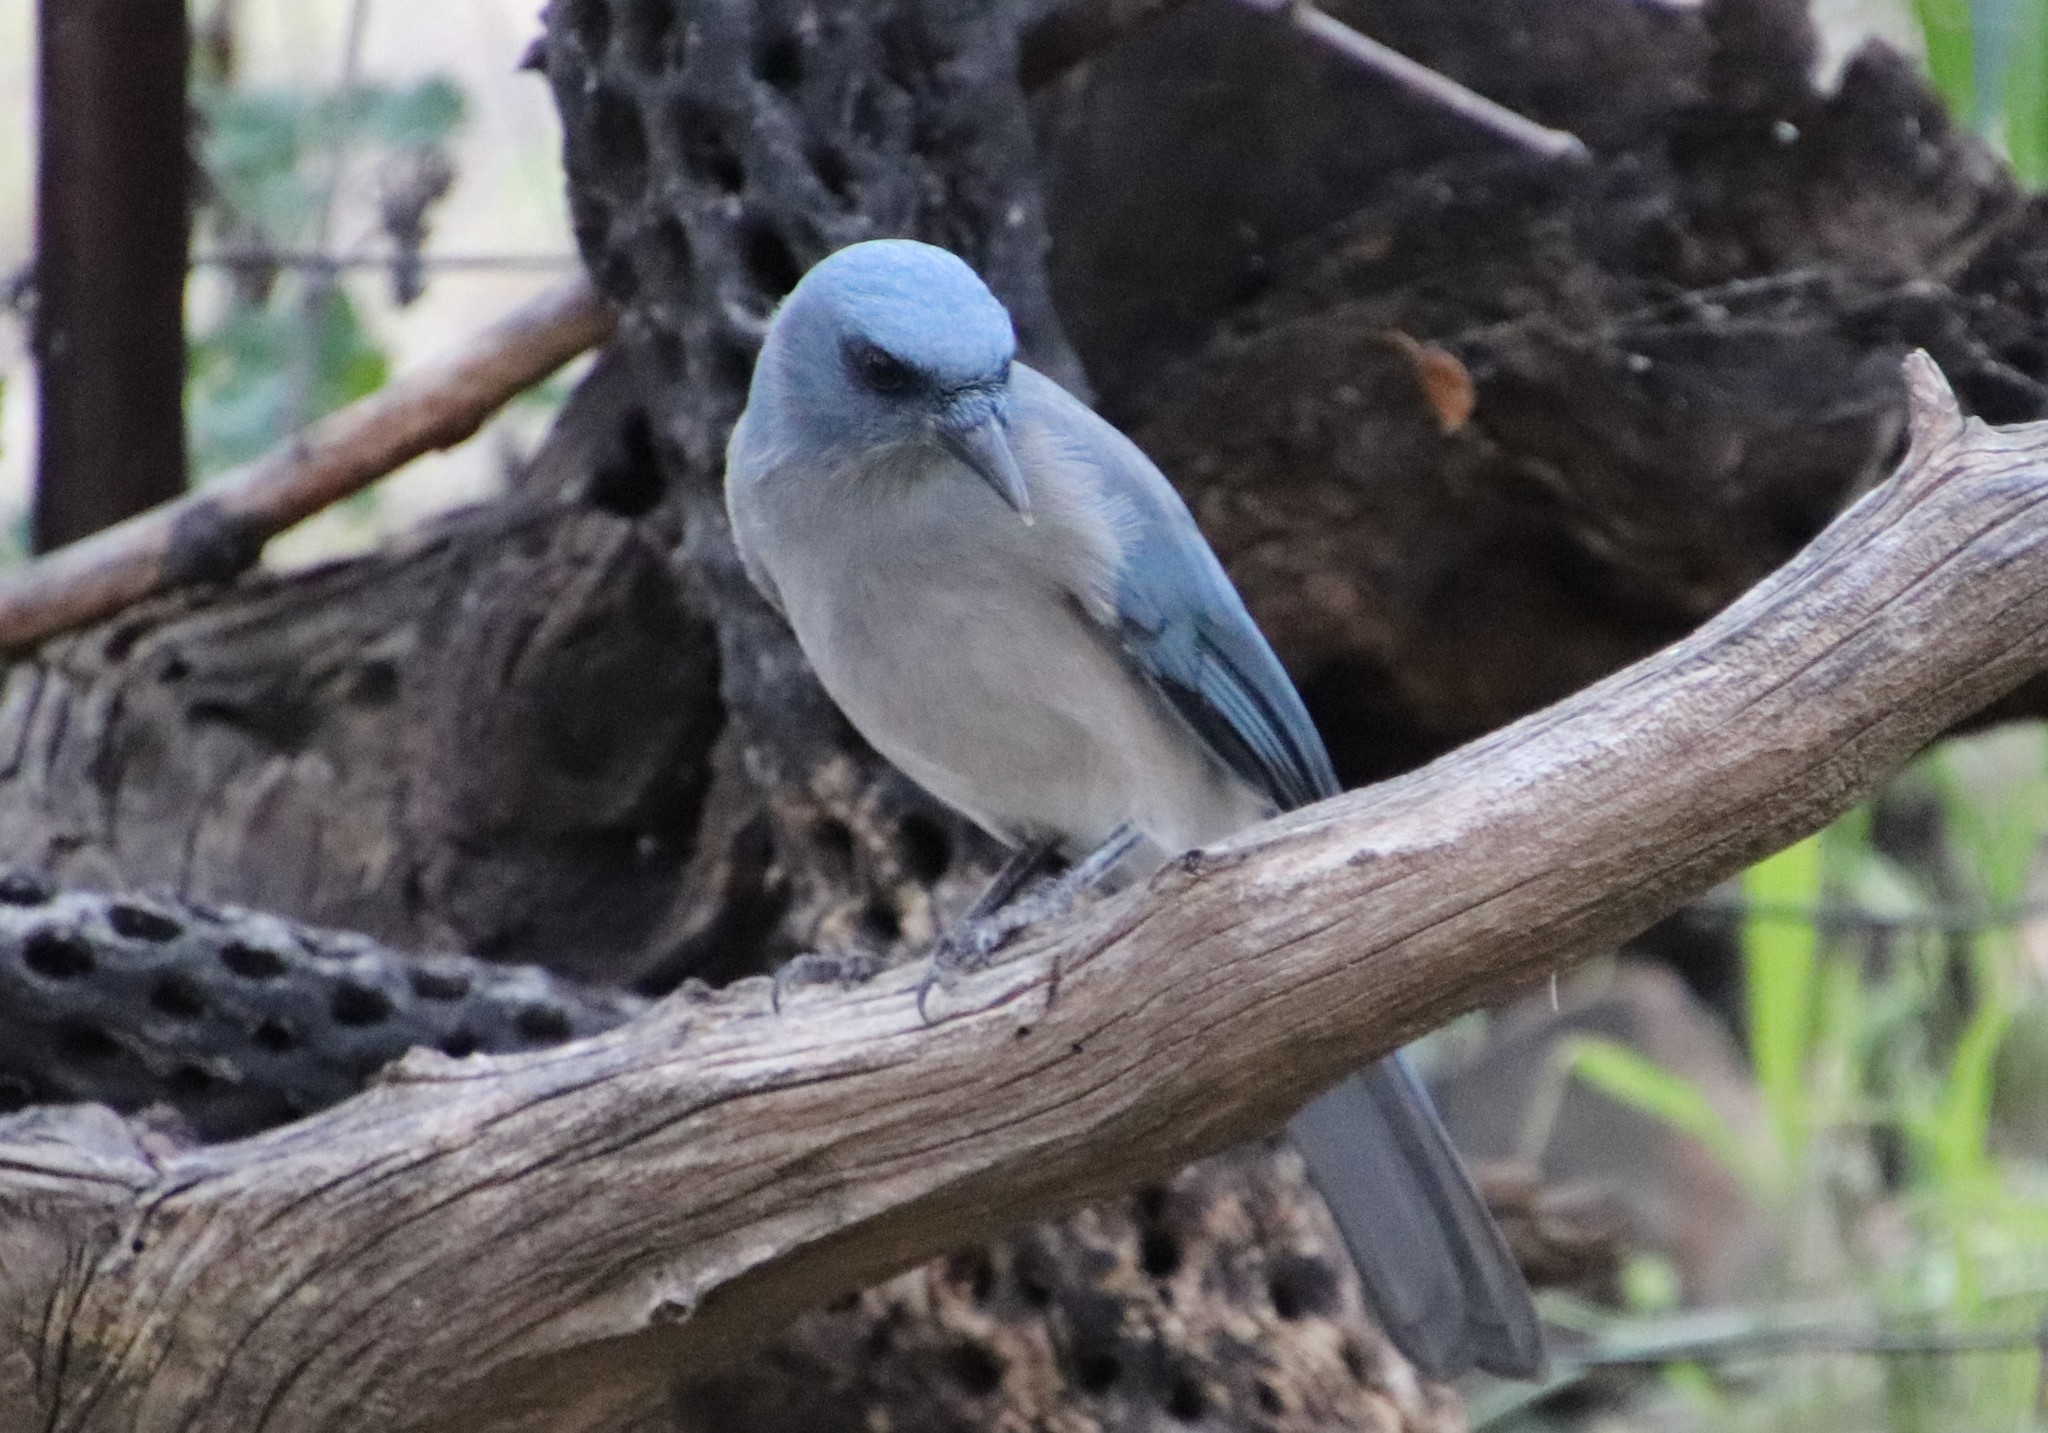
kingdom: Animalia
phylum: Chordata
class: Aves
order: Passeriformes
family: Corvidae
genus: Aphelocoma
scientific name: Aphelocoma wollweberi
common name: Mexican jay
